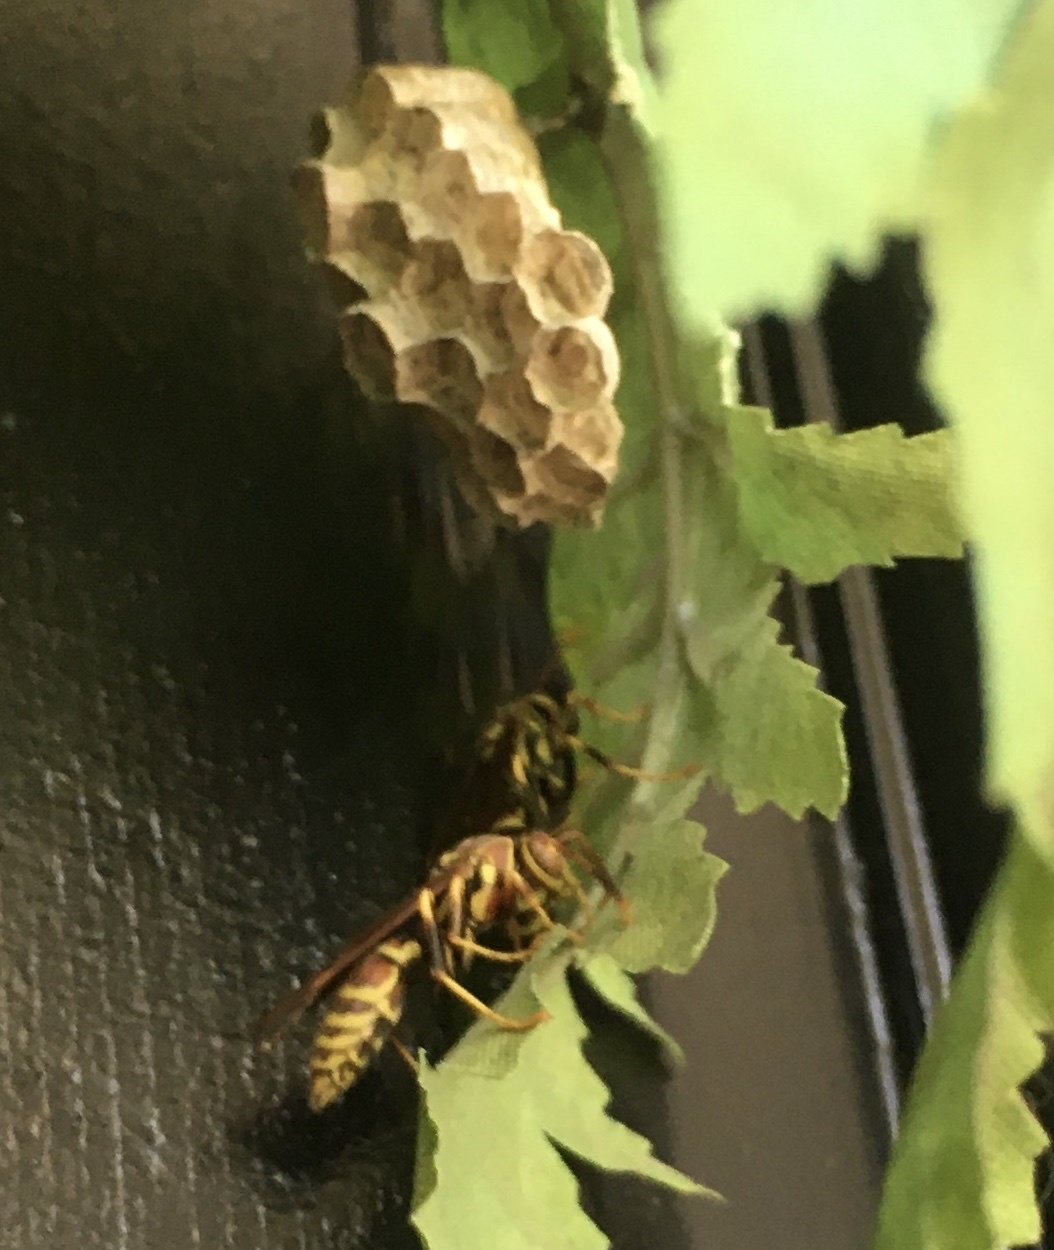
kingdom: Animalia
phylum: Arthropoda
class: Insecta
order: Hymenoptera
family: Eumenidae
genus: Polistes
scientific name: Polistes exclamans
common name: Paper wasp
